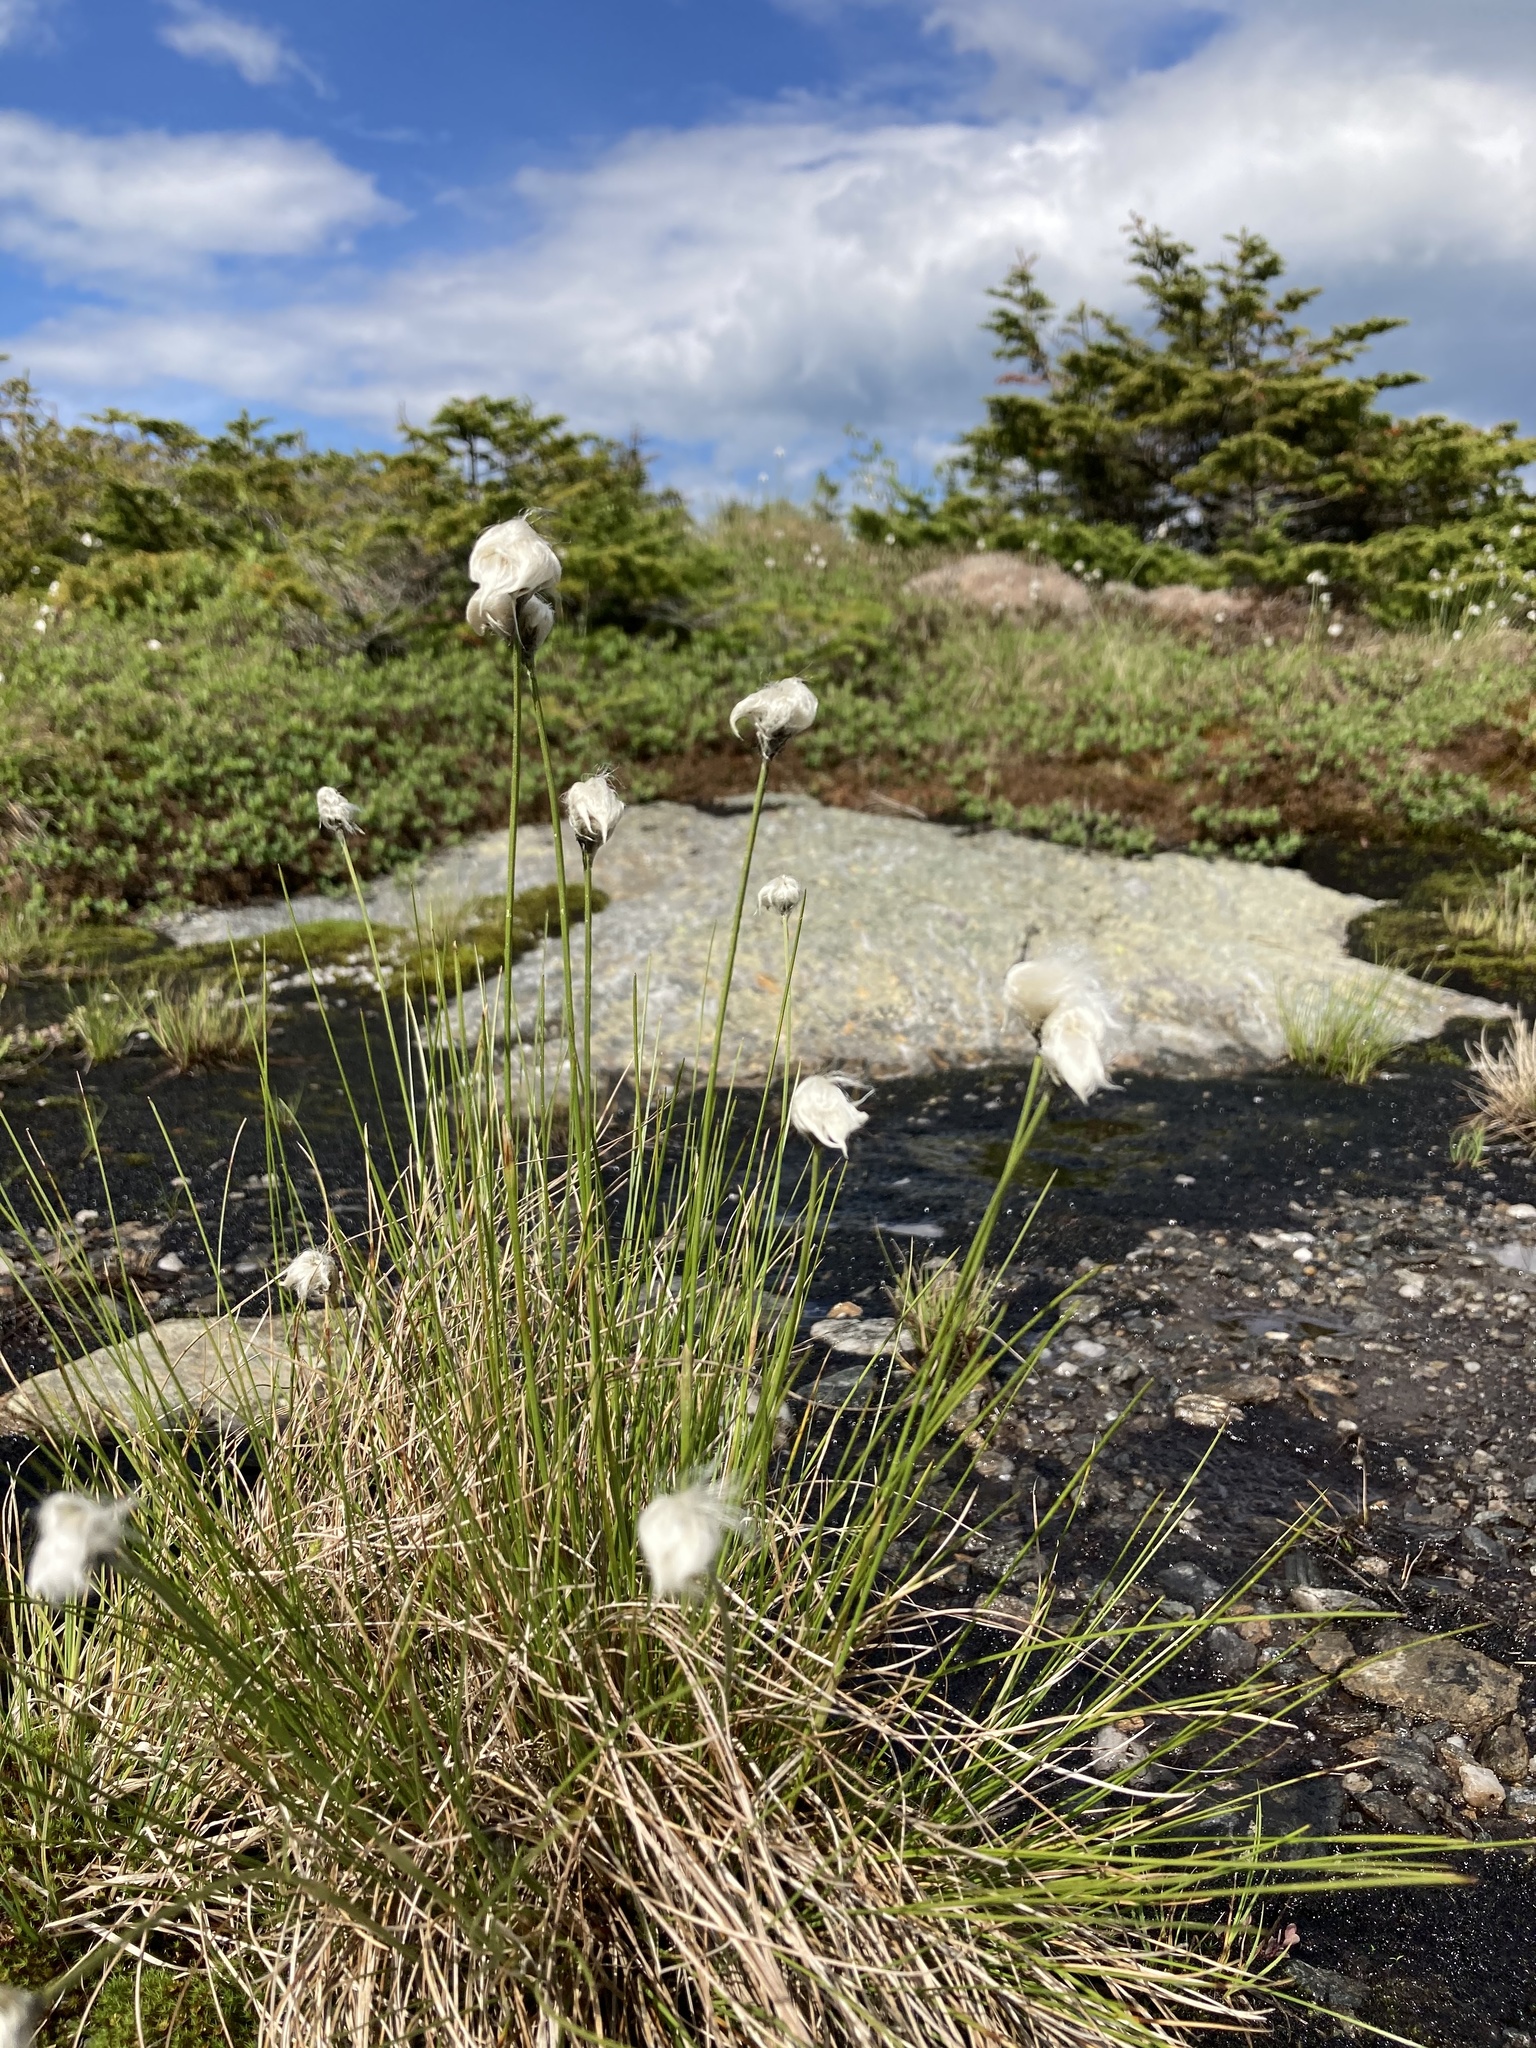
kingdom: Plantae
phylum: Tracheophyta
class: Liliopsida
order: Poales
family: Cyperaceae
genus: Eriophorum
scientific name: Eriophorum vaginatum
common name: Hare's-tail cottongrass
